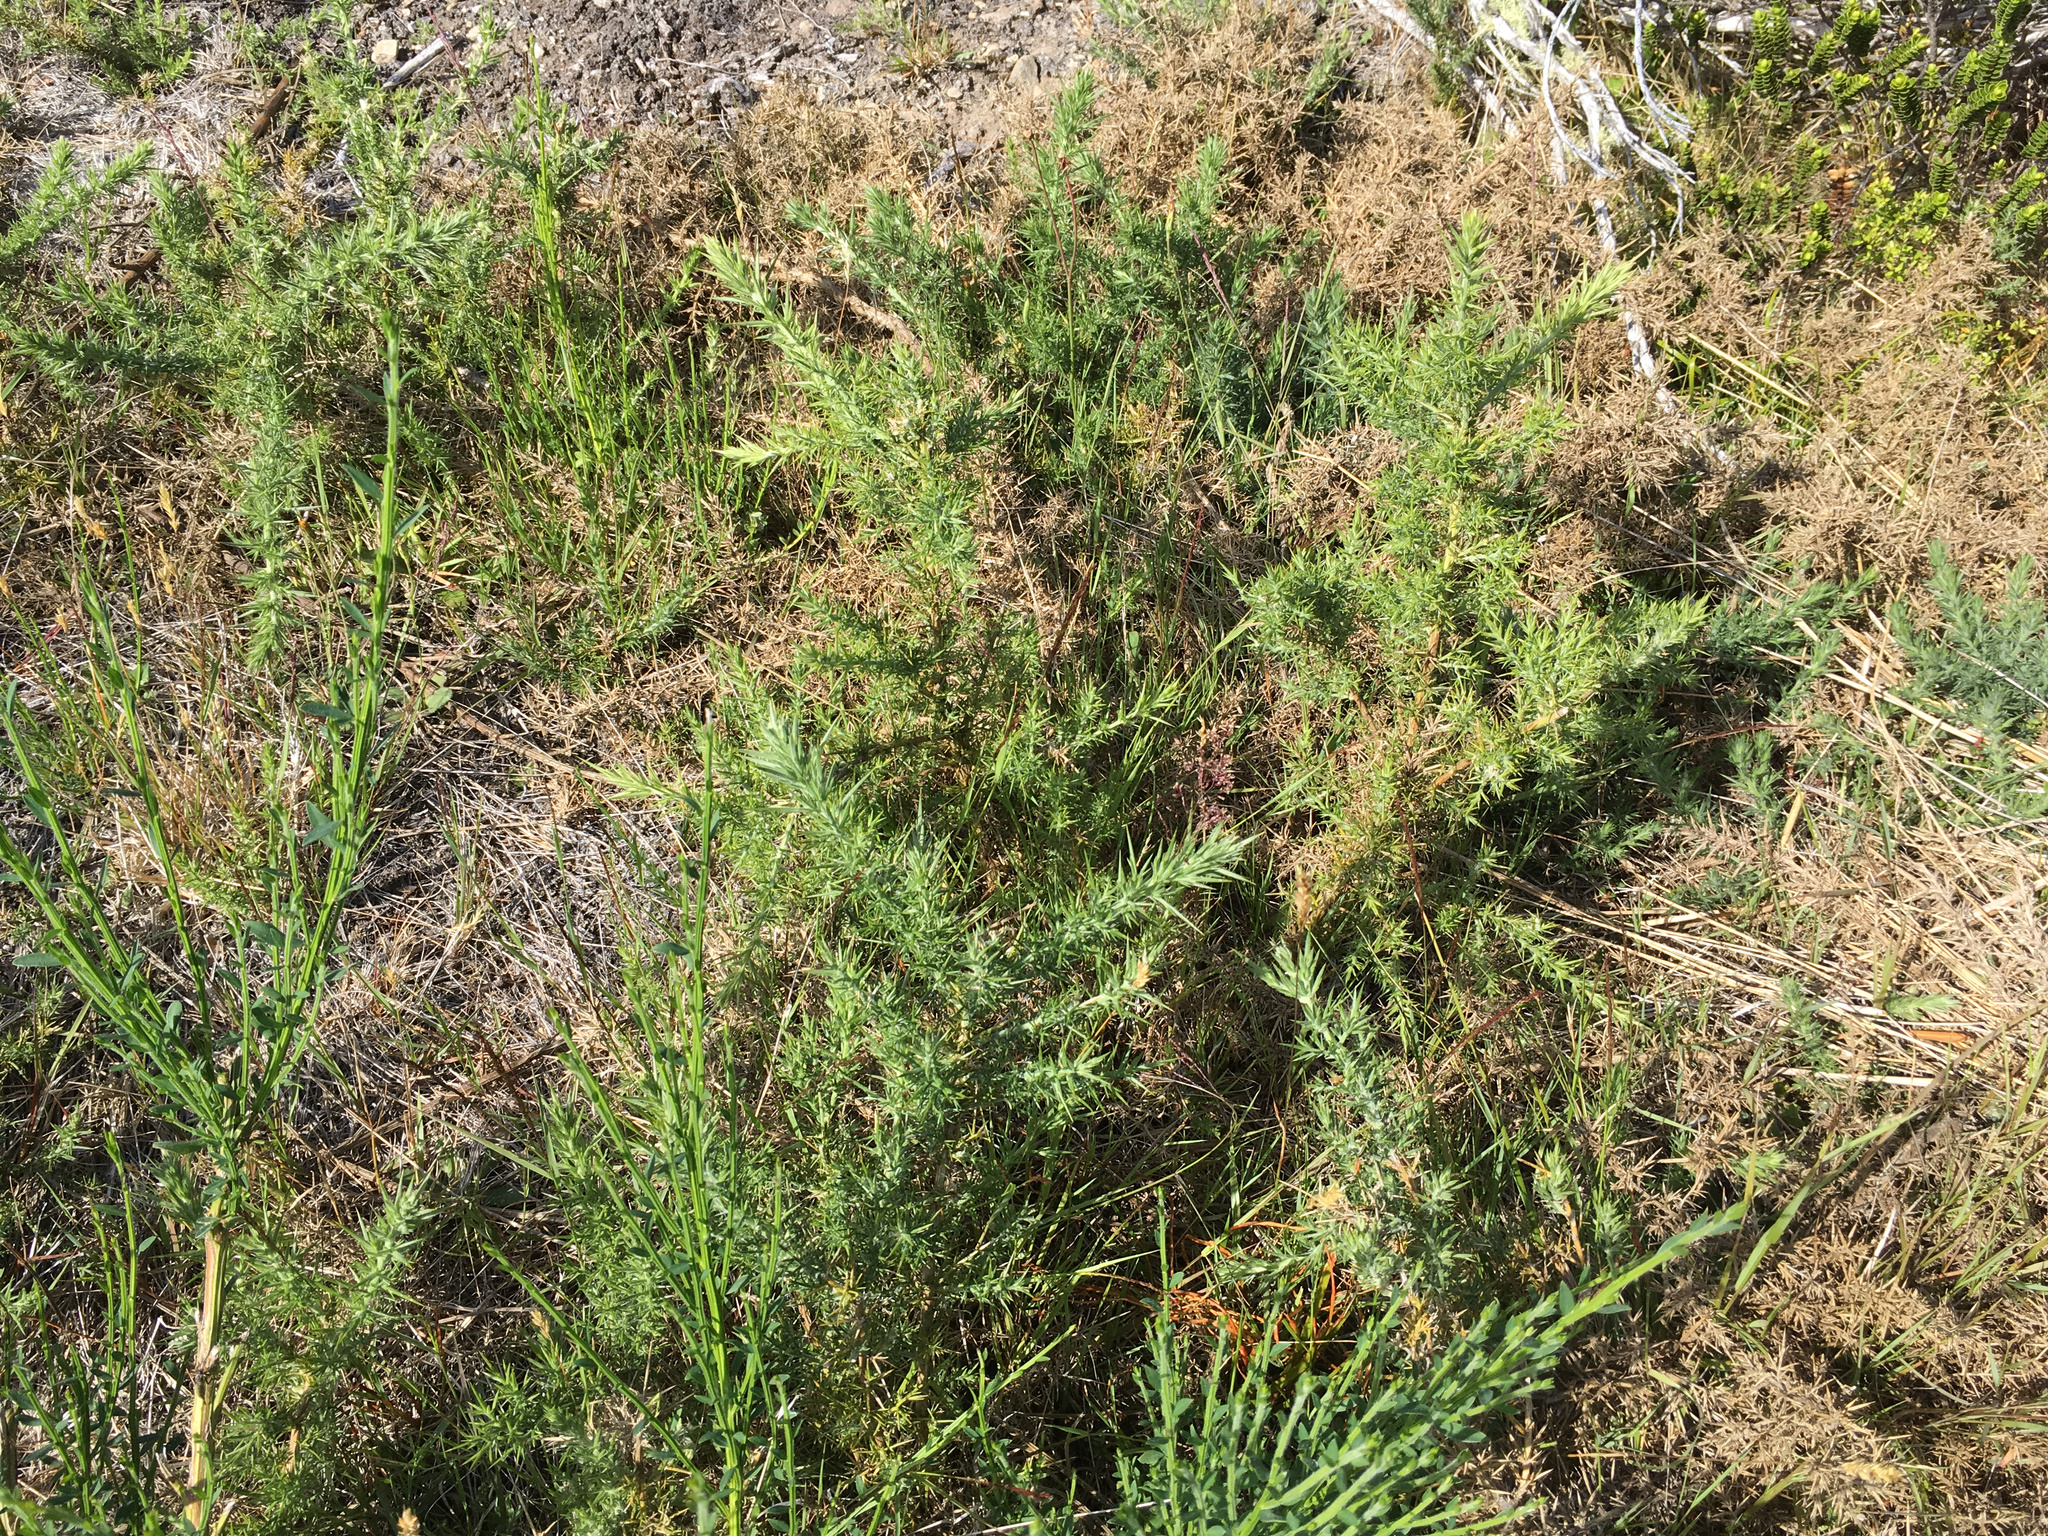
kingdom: Plantae
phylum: Tracheophyta
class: Magnoliopsida
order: Fabales
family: Fabaceae
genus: Ulex
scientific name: Ulex europaeus
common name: Common gorse
